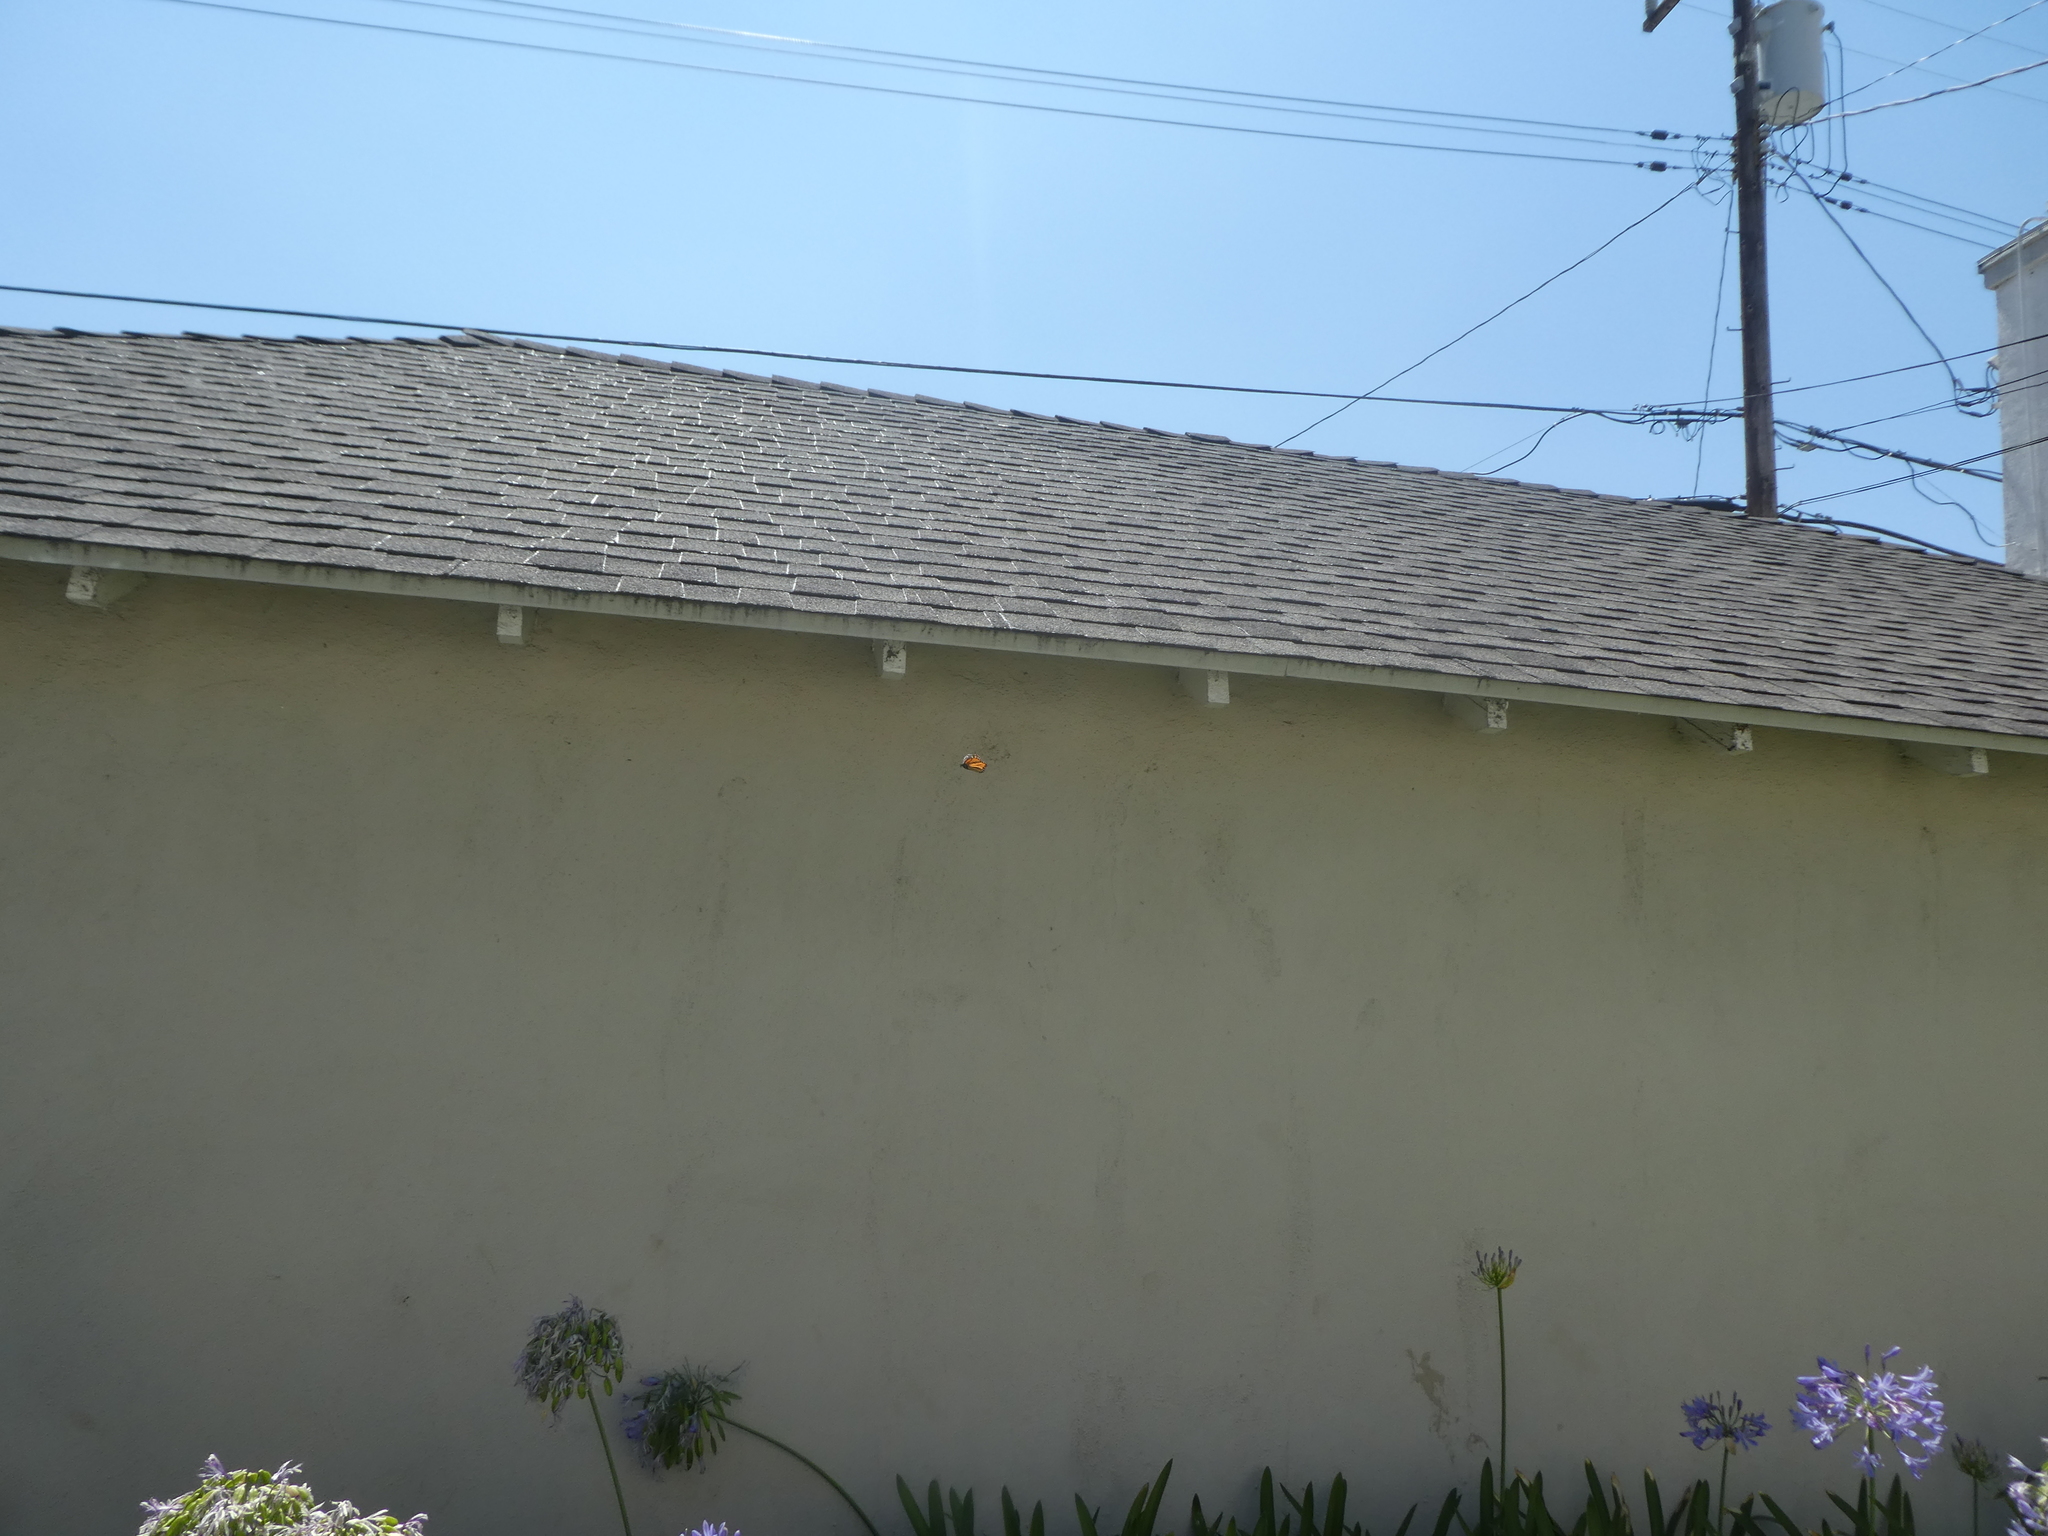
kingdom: Animalia
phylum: Arthropoda
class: Insecta
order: Lepidoptera
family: Nymphalidae
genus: Danaus
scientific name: Danaus plexippus
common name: Monarch
